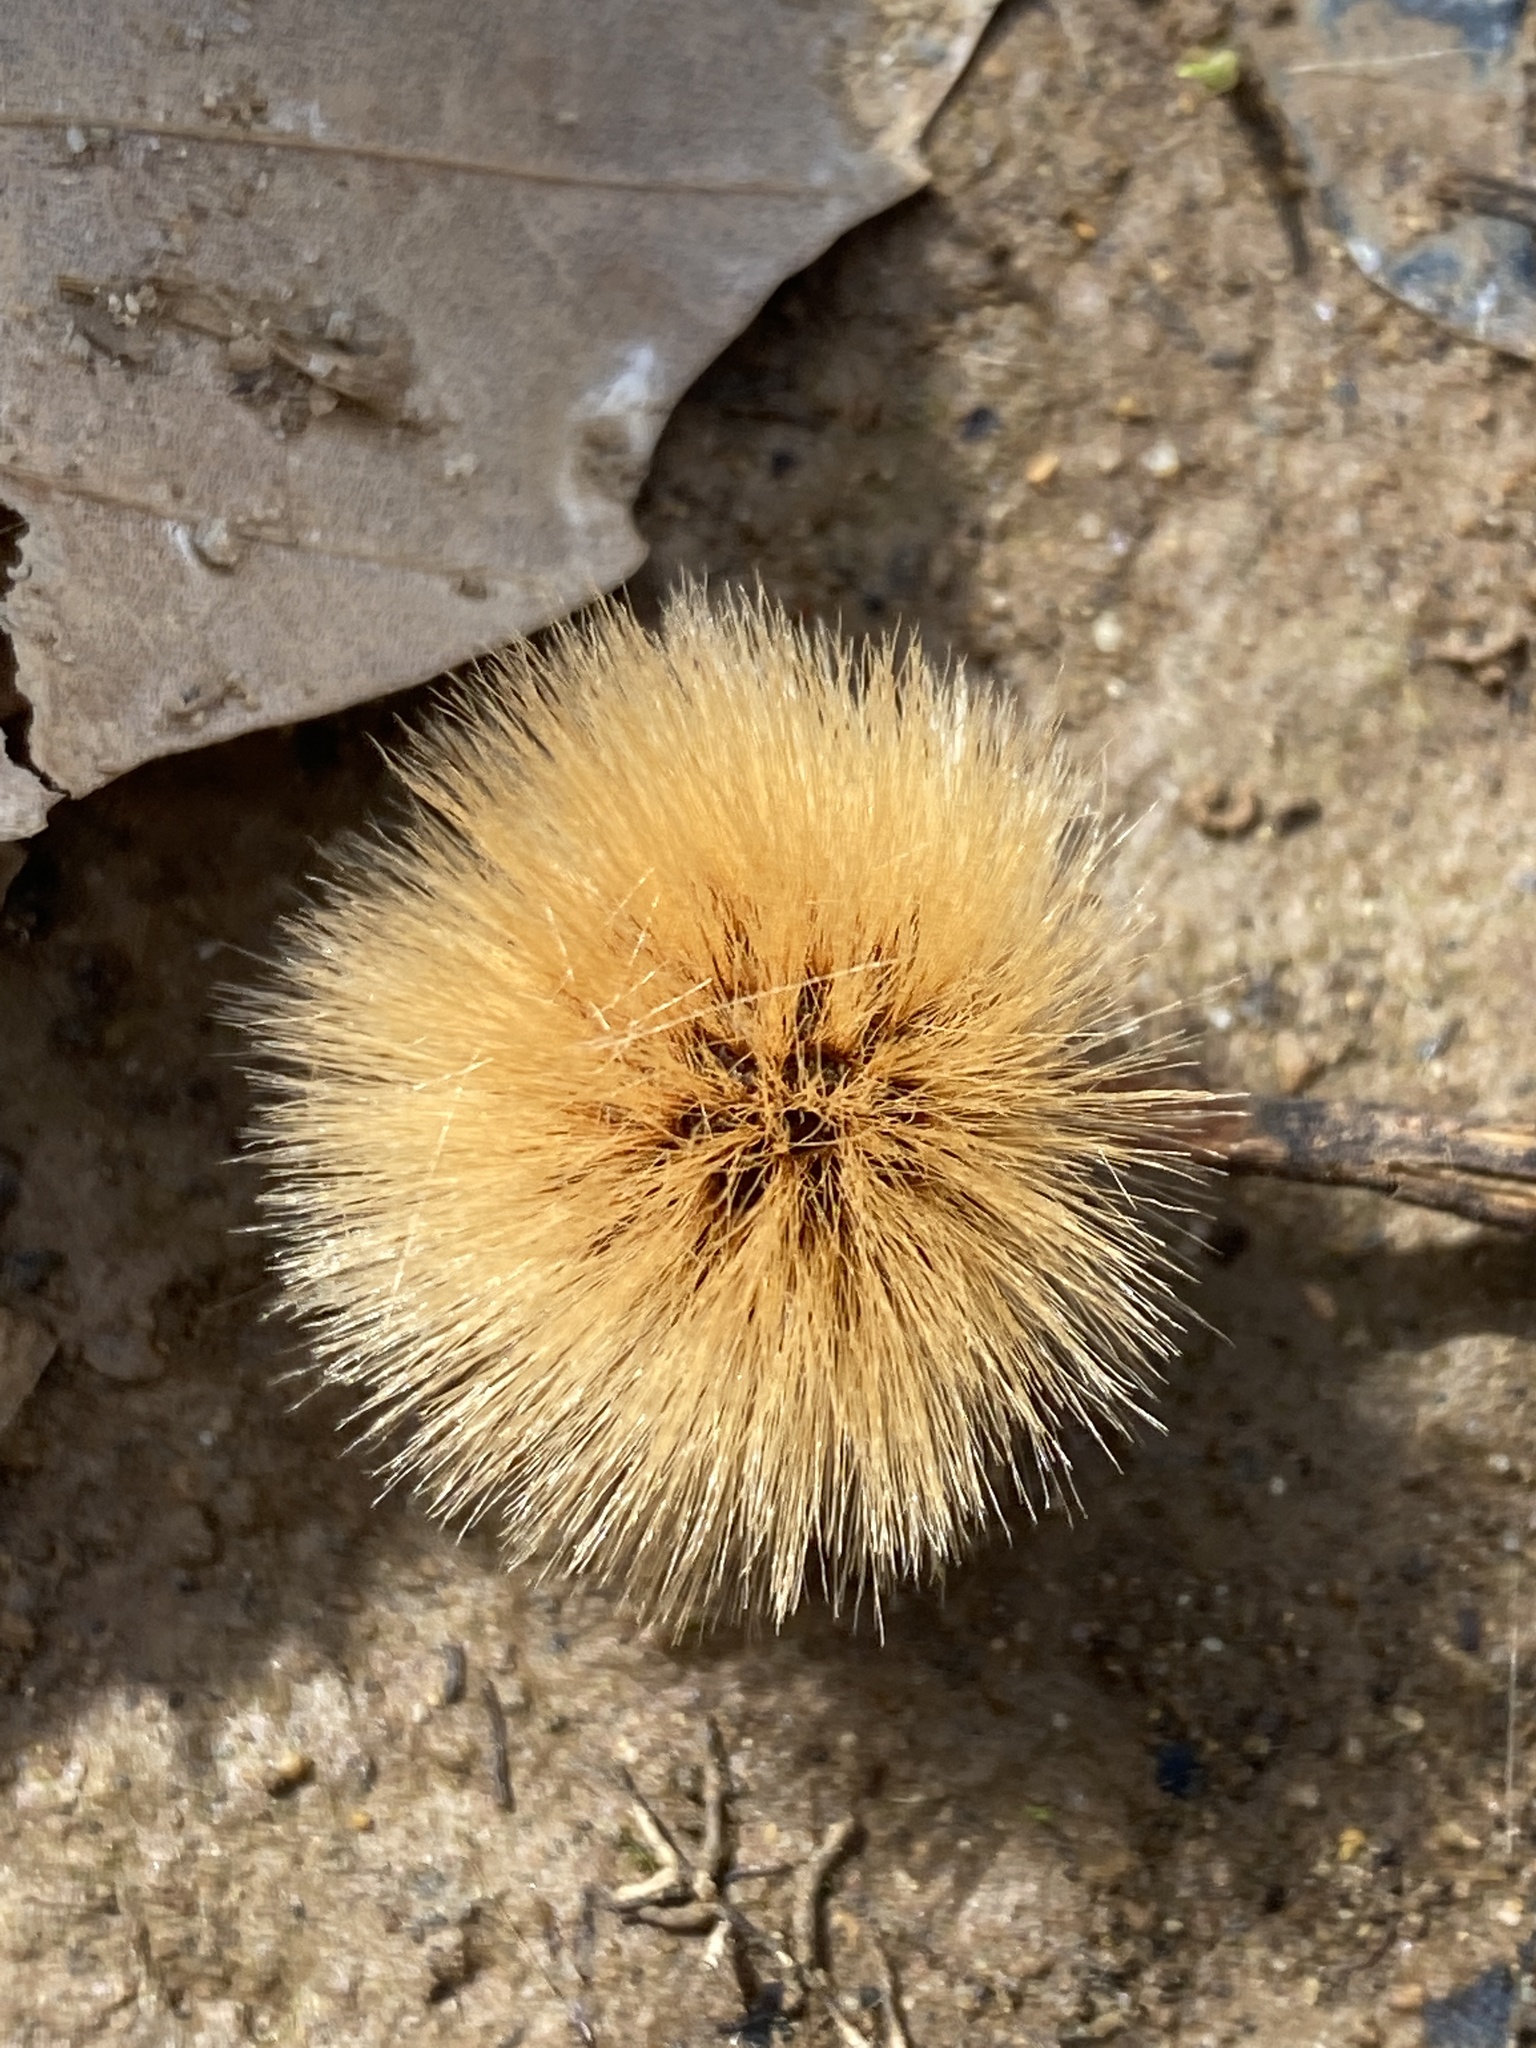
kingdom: Plantae
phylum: Tracheophyta
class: Magnoliopsida
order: Proteales
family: Platanaceae
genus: Platanus
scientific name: Platanus occidentalis
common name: American sycamore
